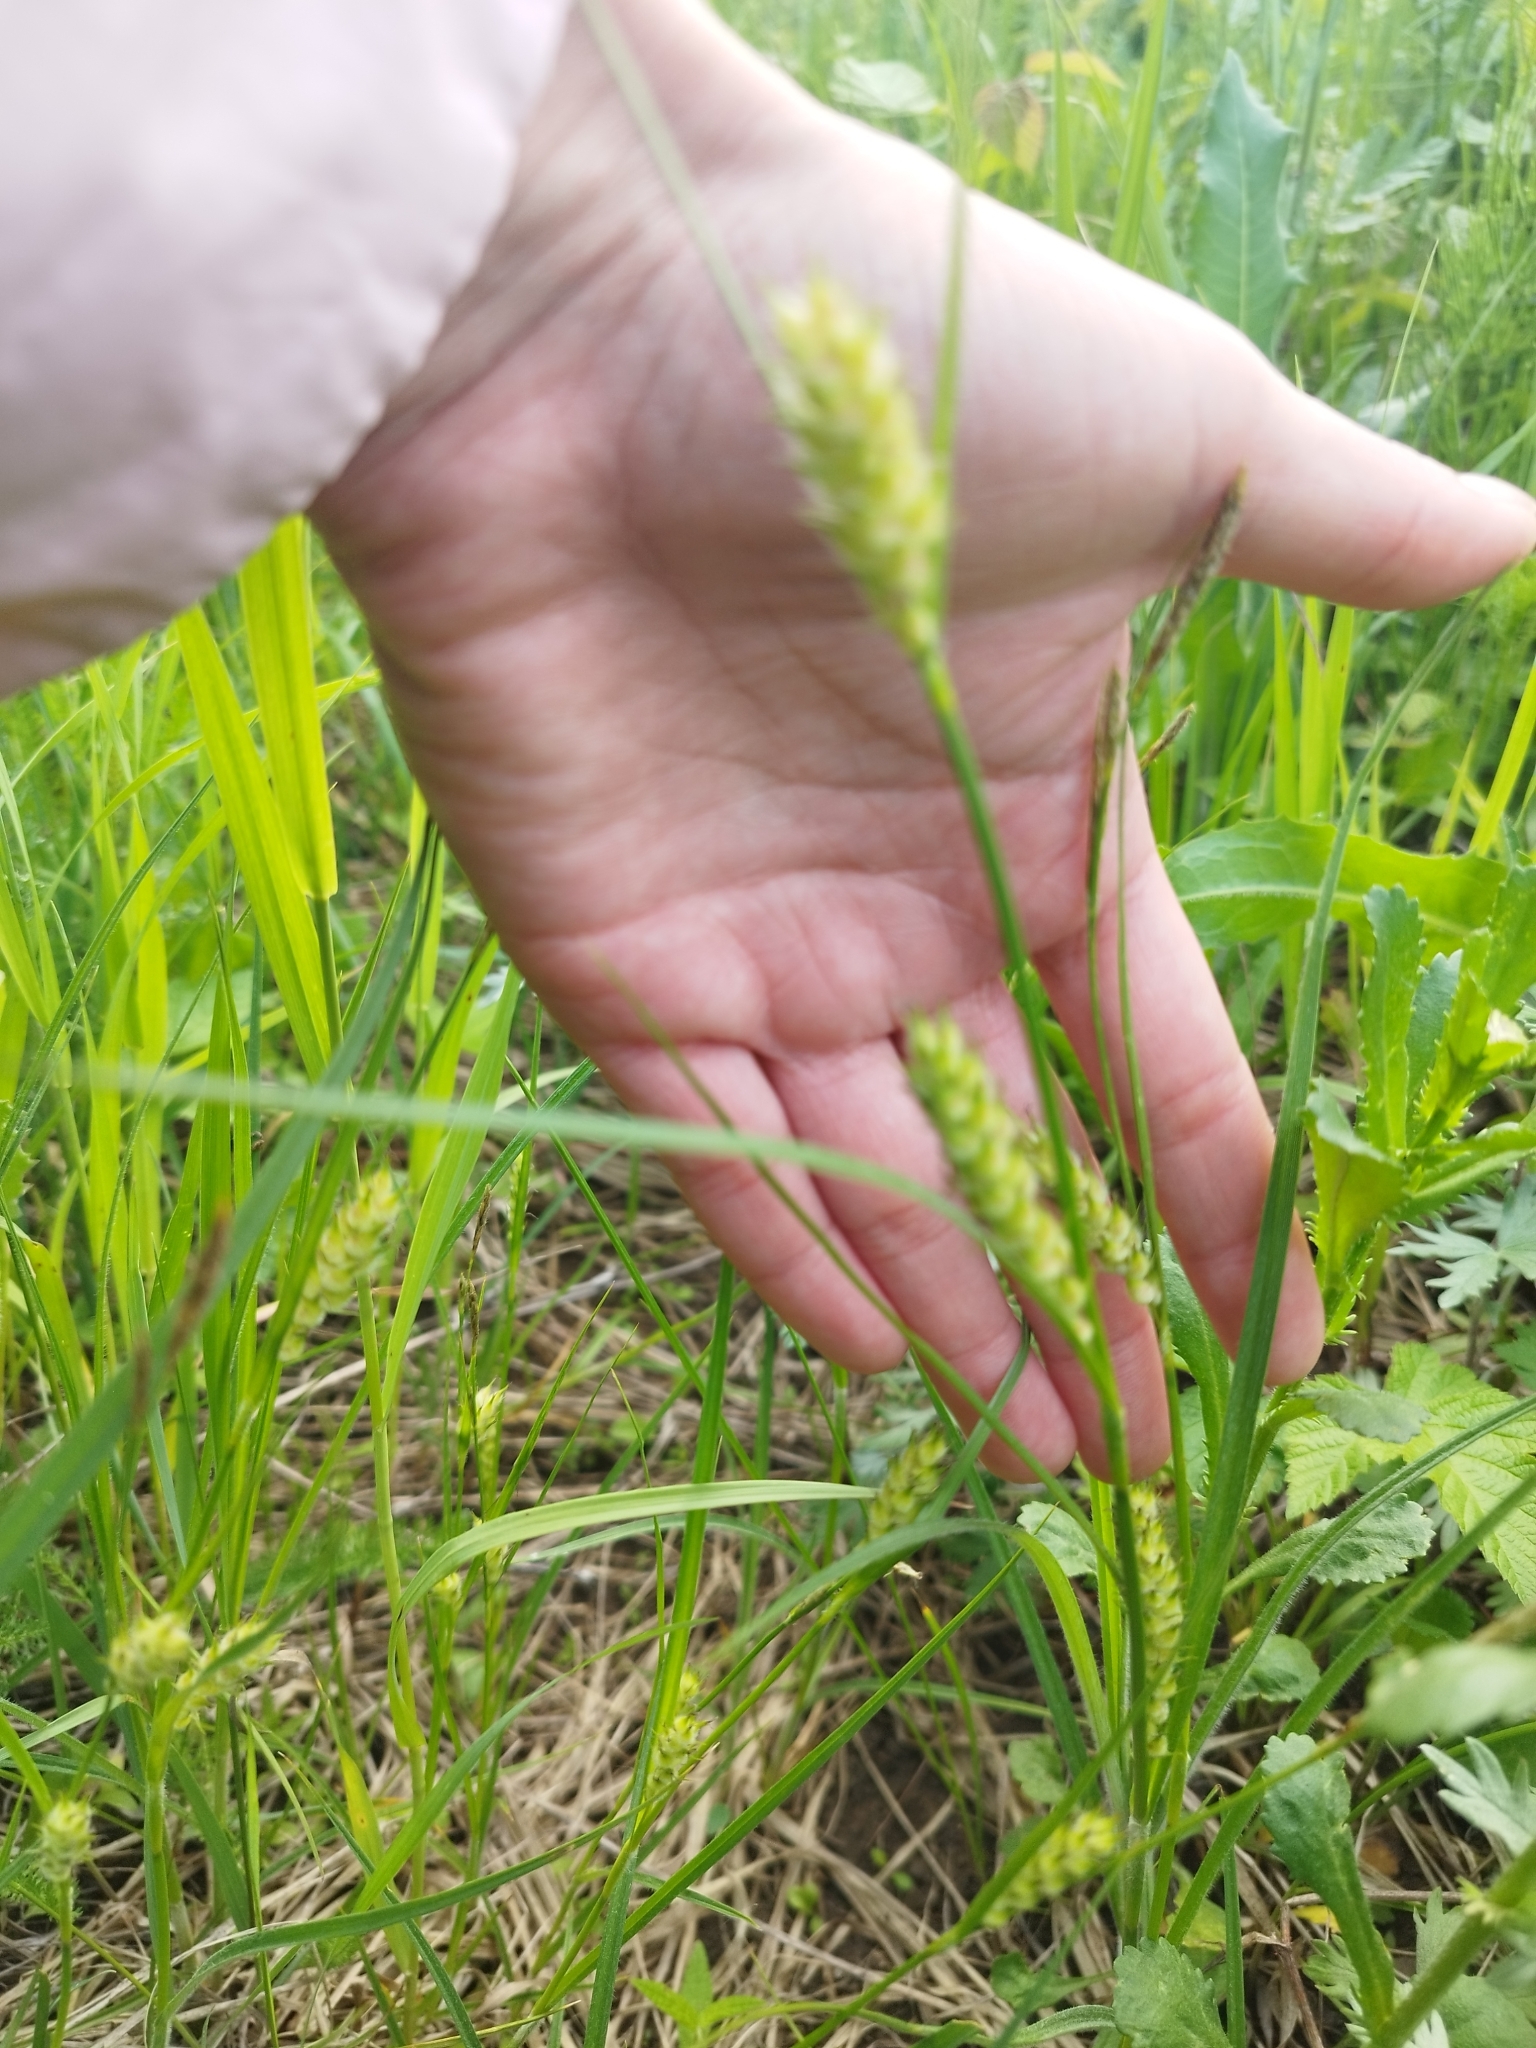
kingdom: Plantae
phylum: Tracheophyta
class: Liliopsida
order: Poales
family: Cyperaceae
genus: Carex
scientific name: Carex hirta
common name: Hairy sedge
